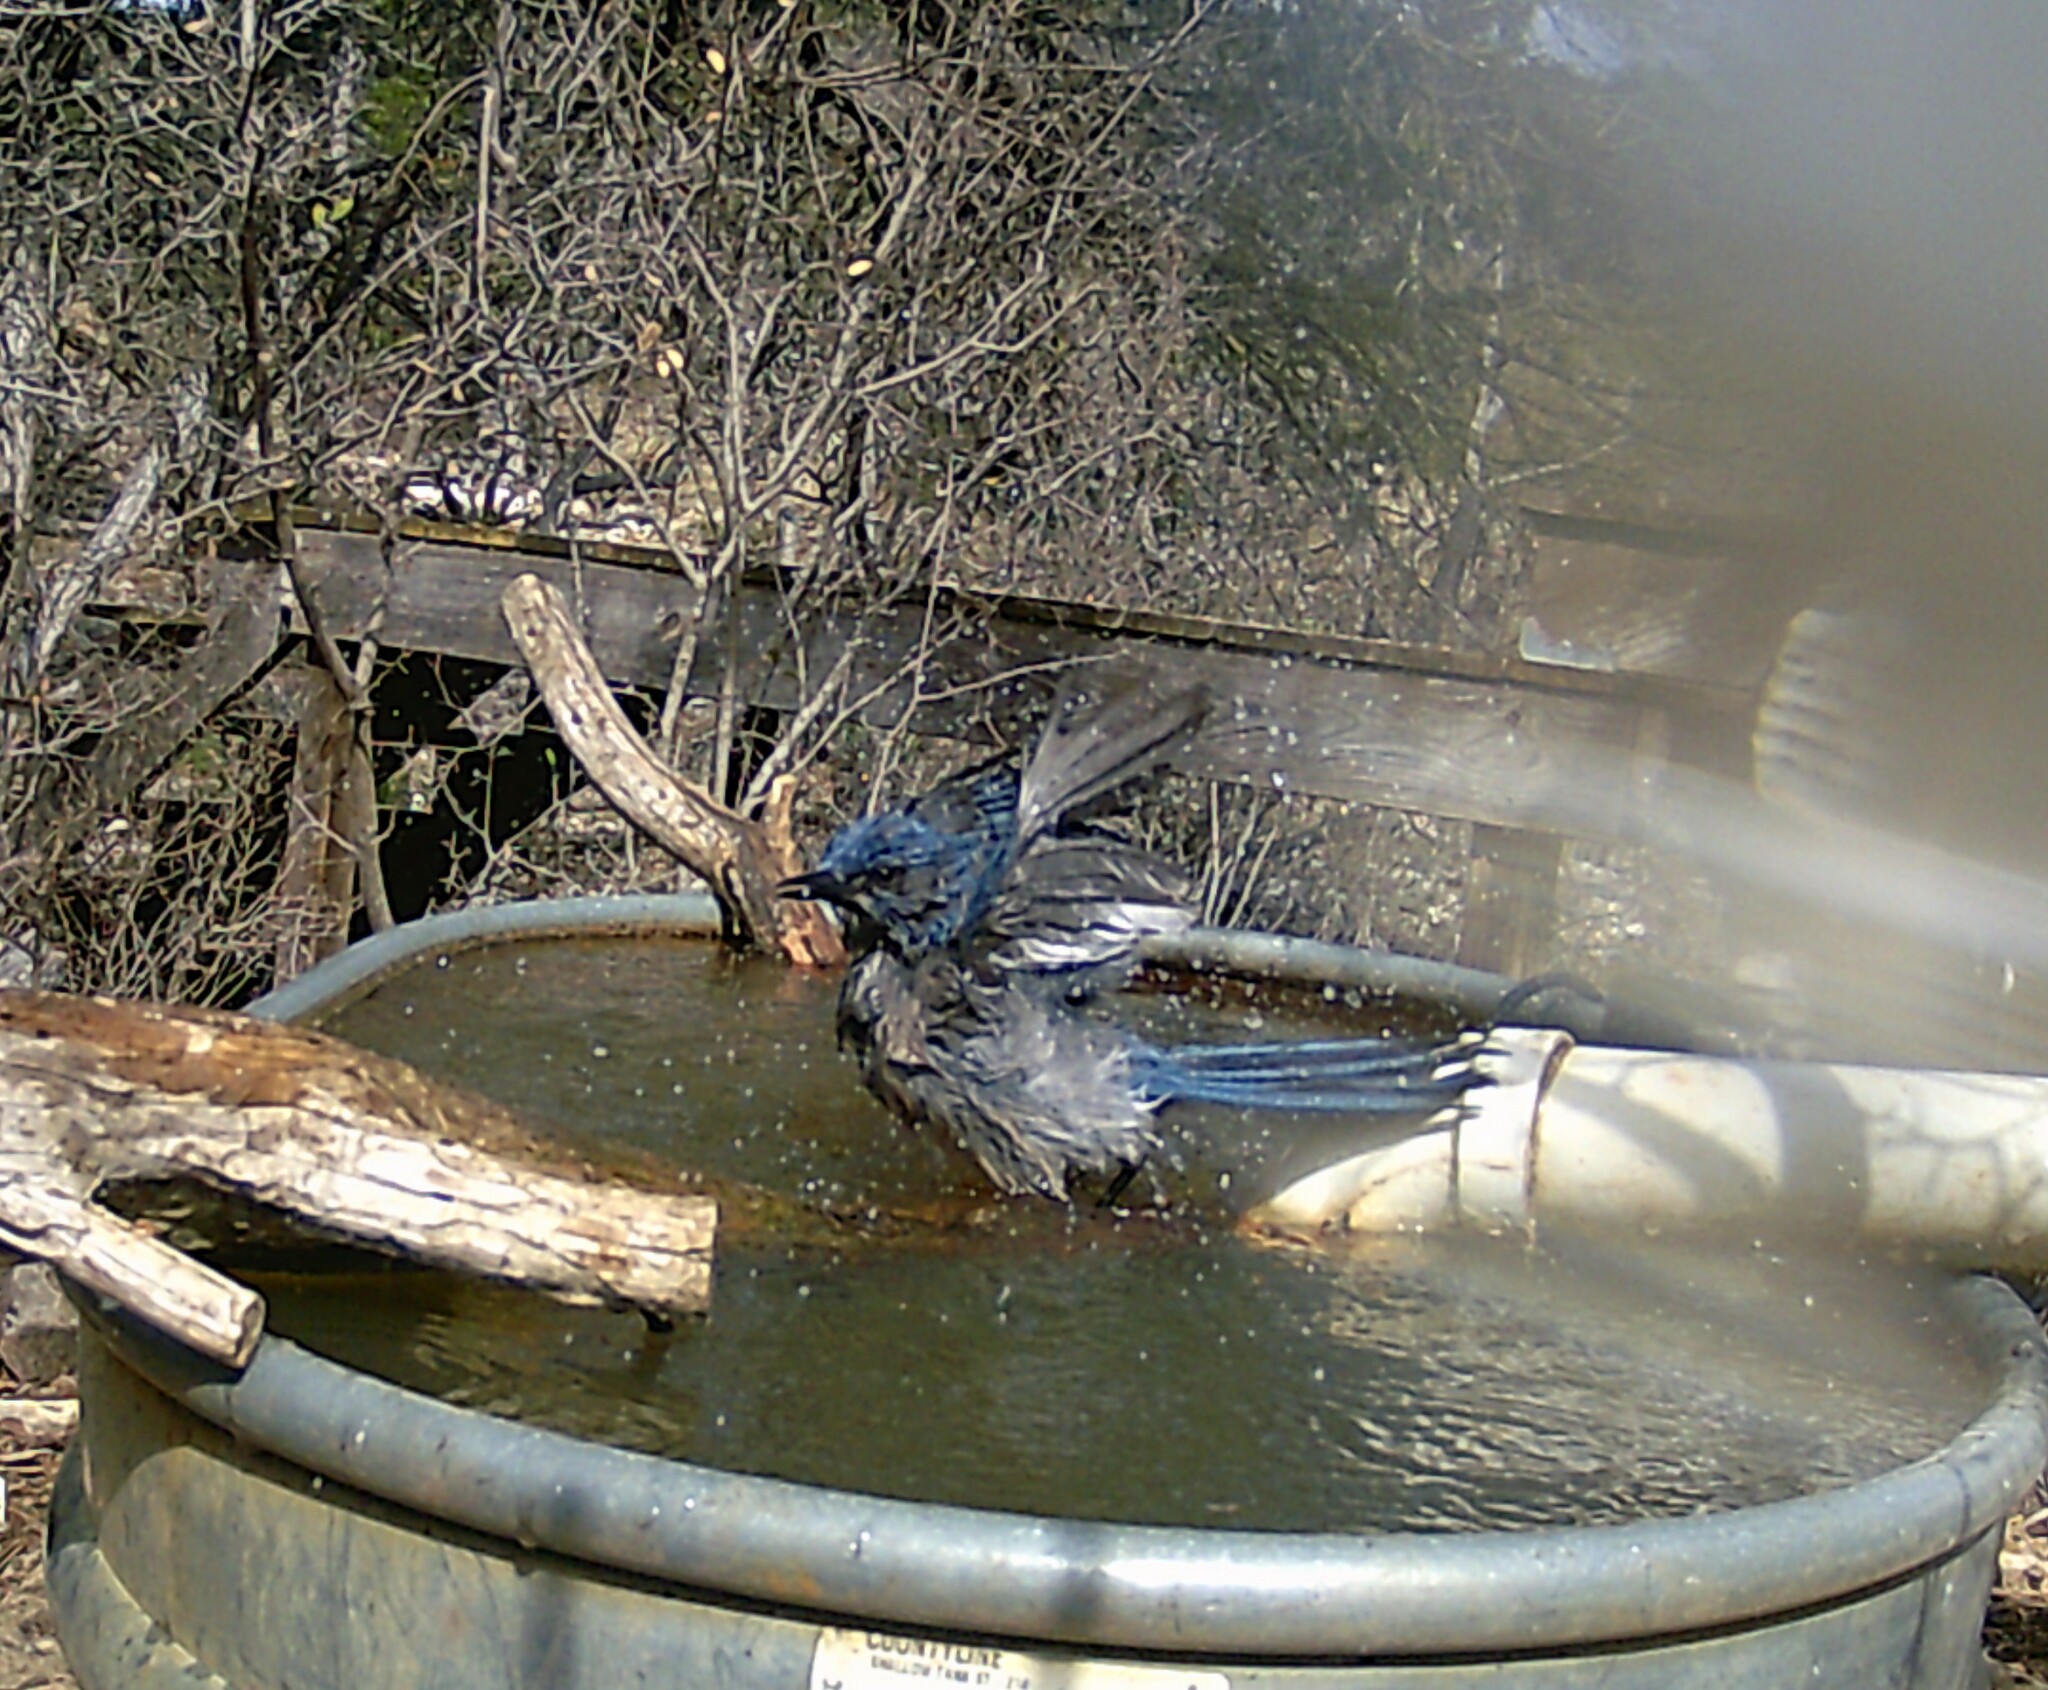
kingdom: Animalia
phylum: Chordata
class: Aves
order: Passeriformes
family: Corvidae
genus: Aphelocoma
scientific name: Aphelocoma woodhouseii
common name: Woodhouse's scrub-jay
